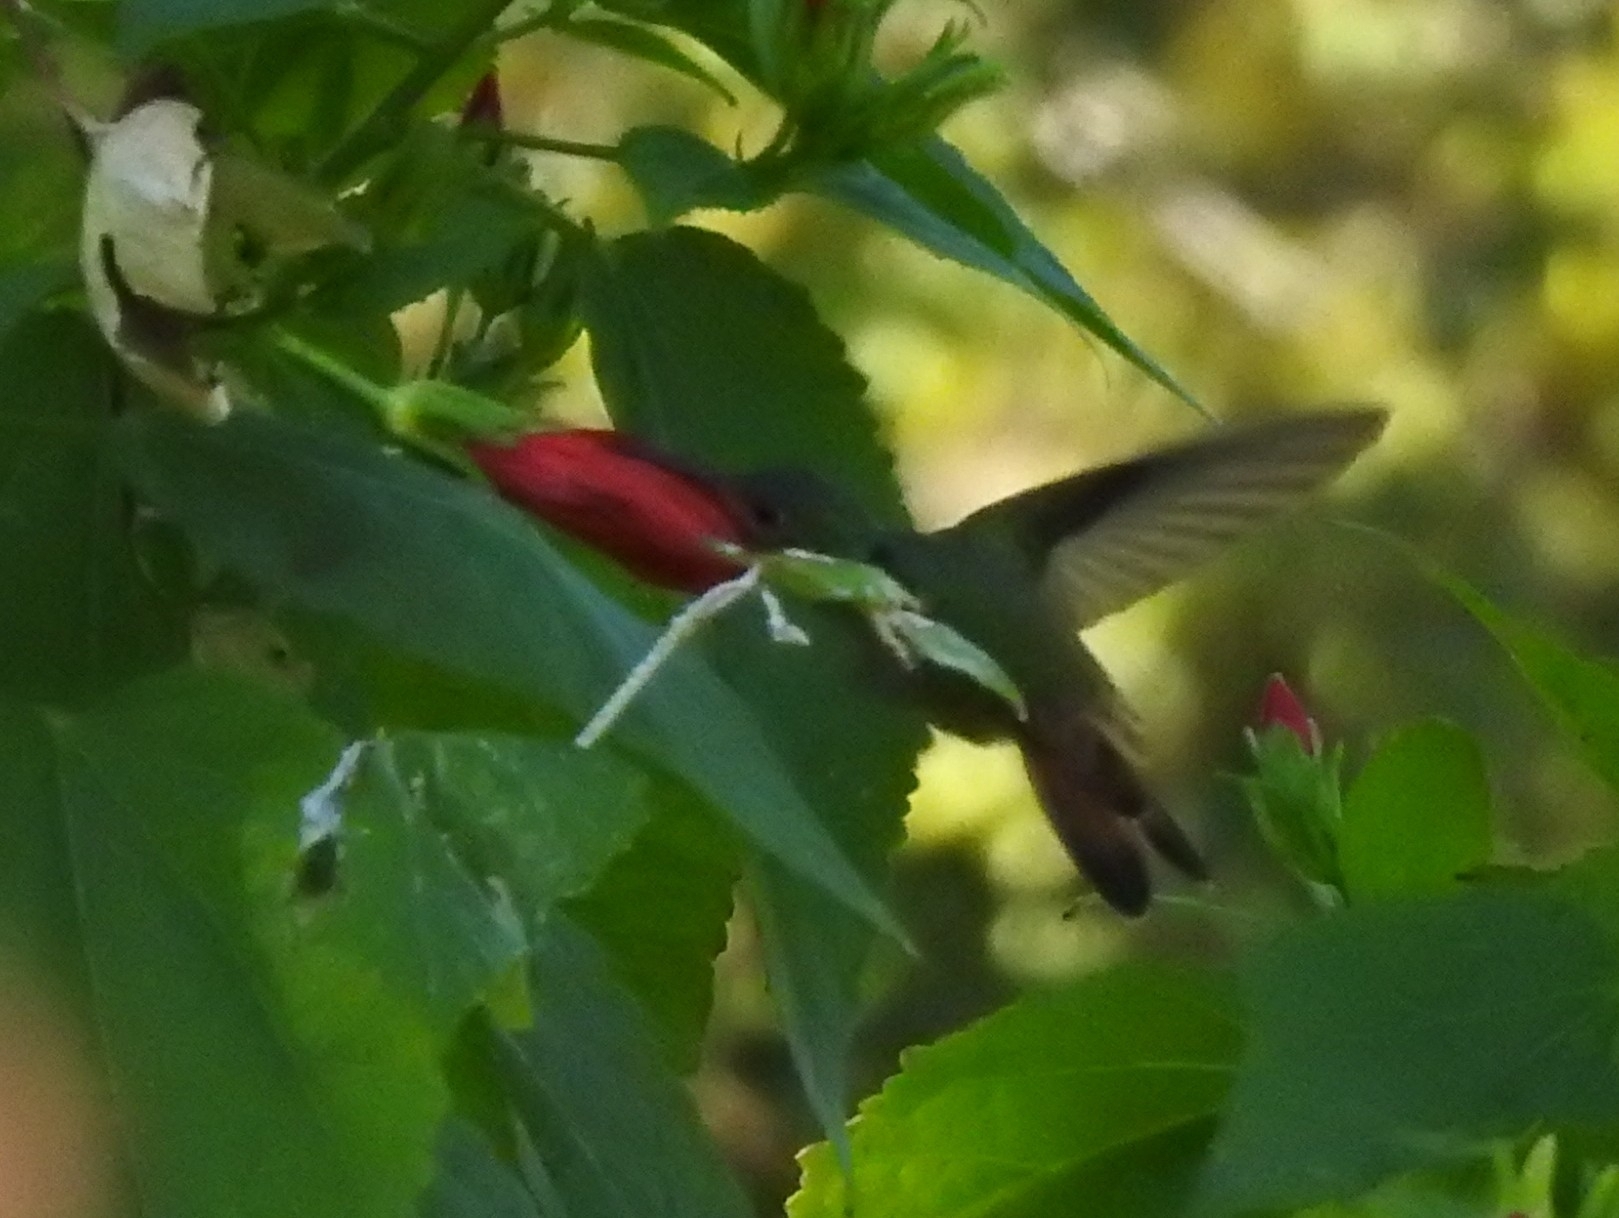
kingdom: Animalia
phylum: Chordata
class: Aves
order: Apodiformes
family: Trochilidae
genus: Amazilia
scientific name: Amazilia yucatanensis
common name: Buff-bellied hummingbird
